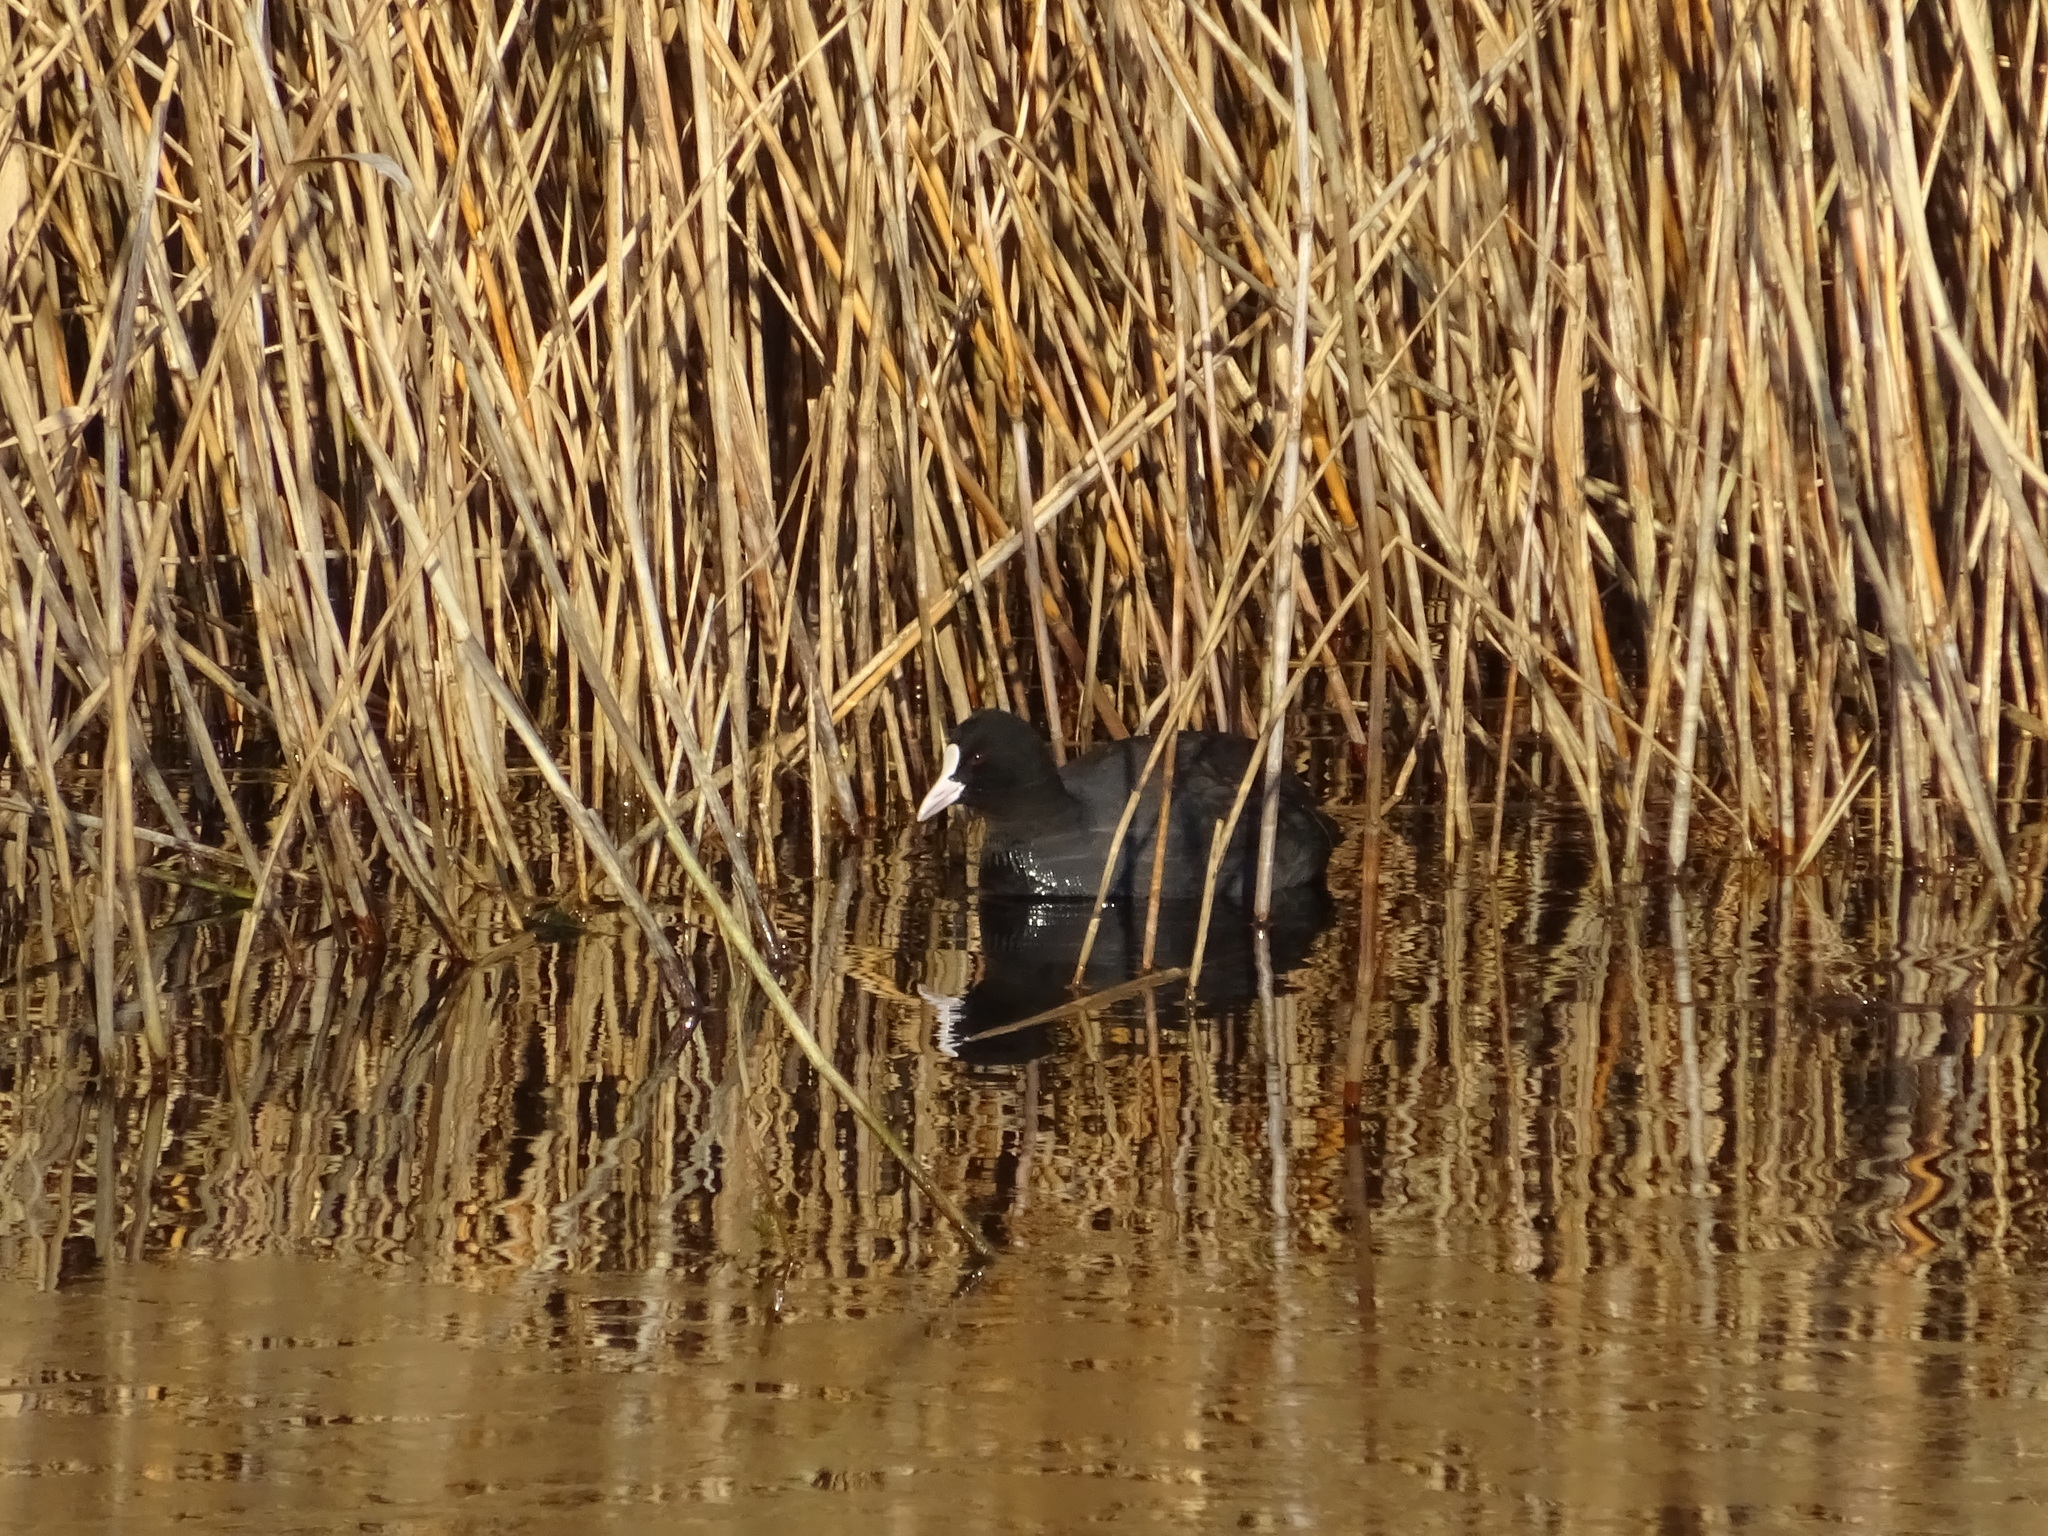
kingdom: Animalia
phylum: Chordata
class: Aves
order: Gruiformes
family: Rallidae
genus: Fulica
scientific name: Fulica atra
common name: Eurasian coot
